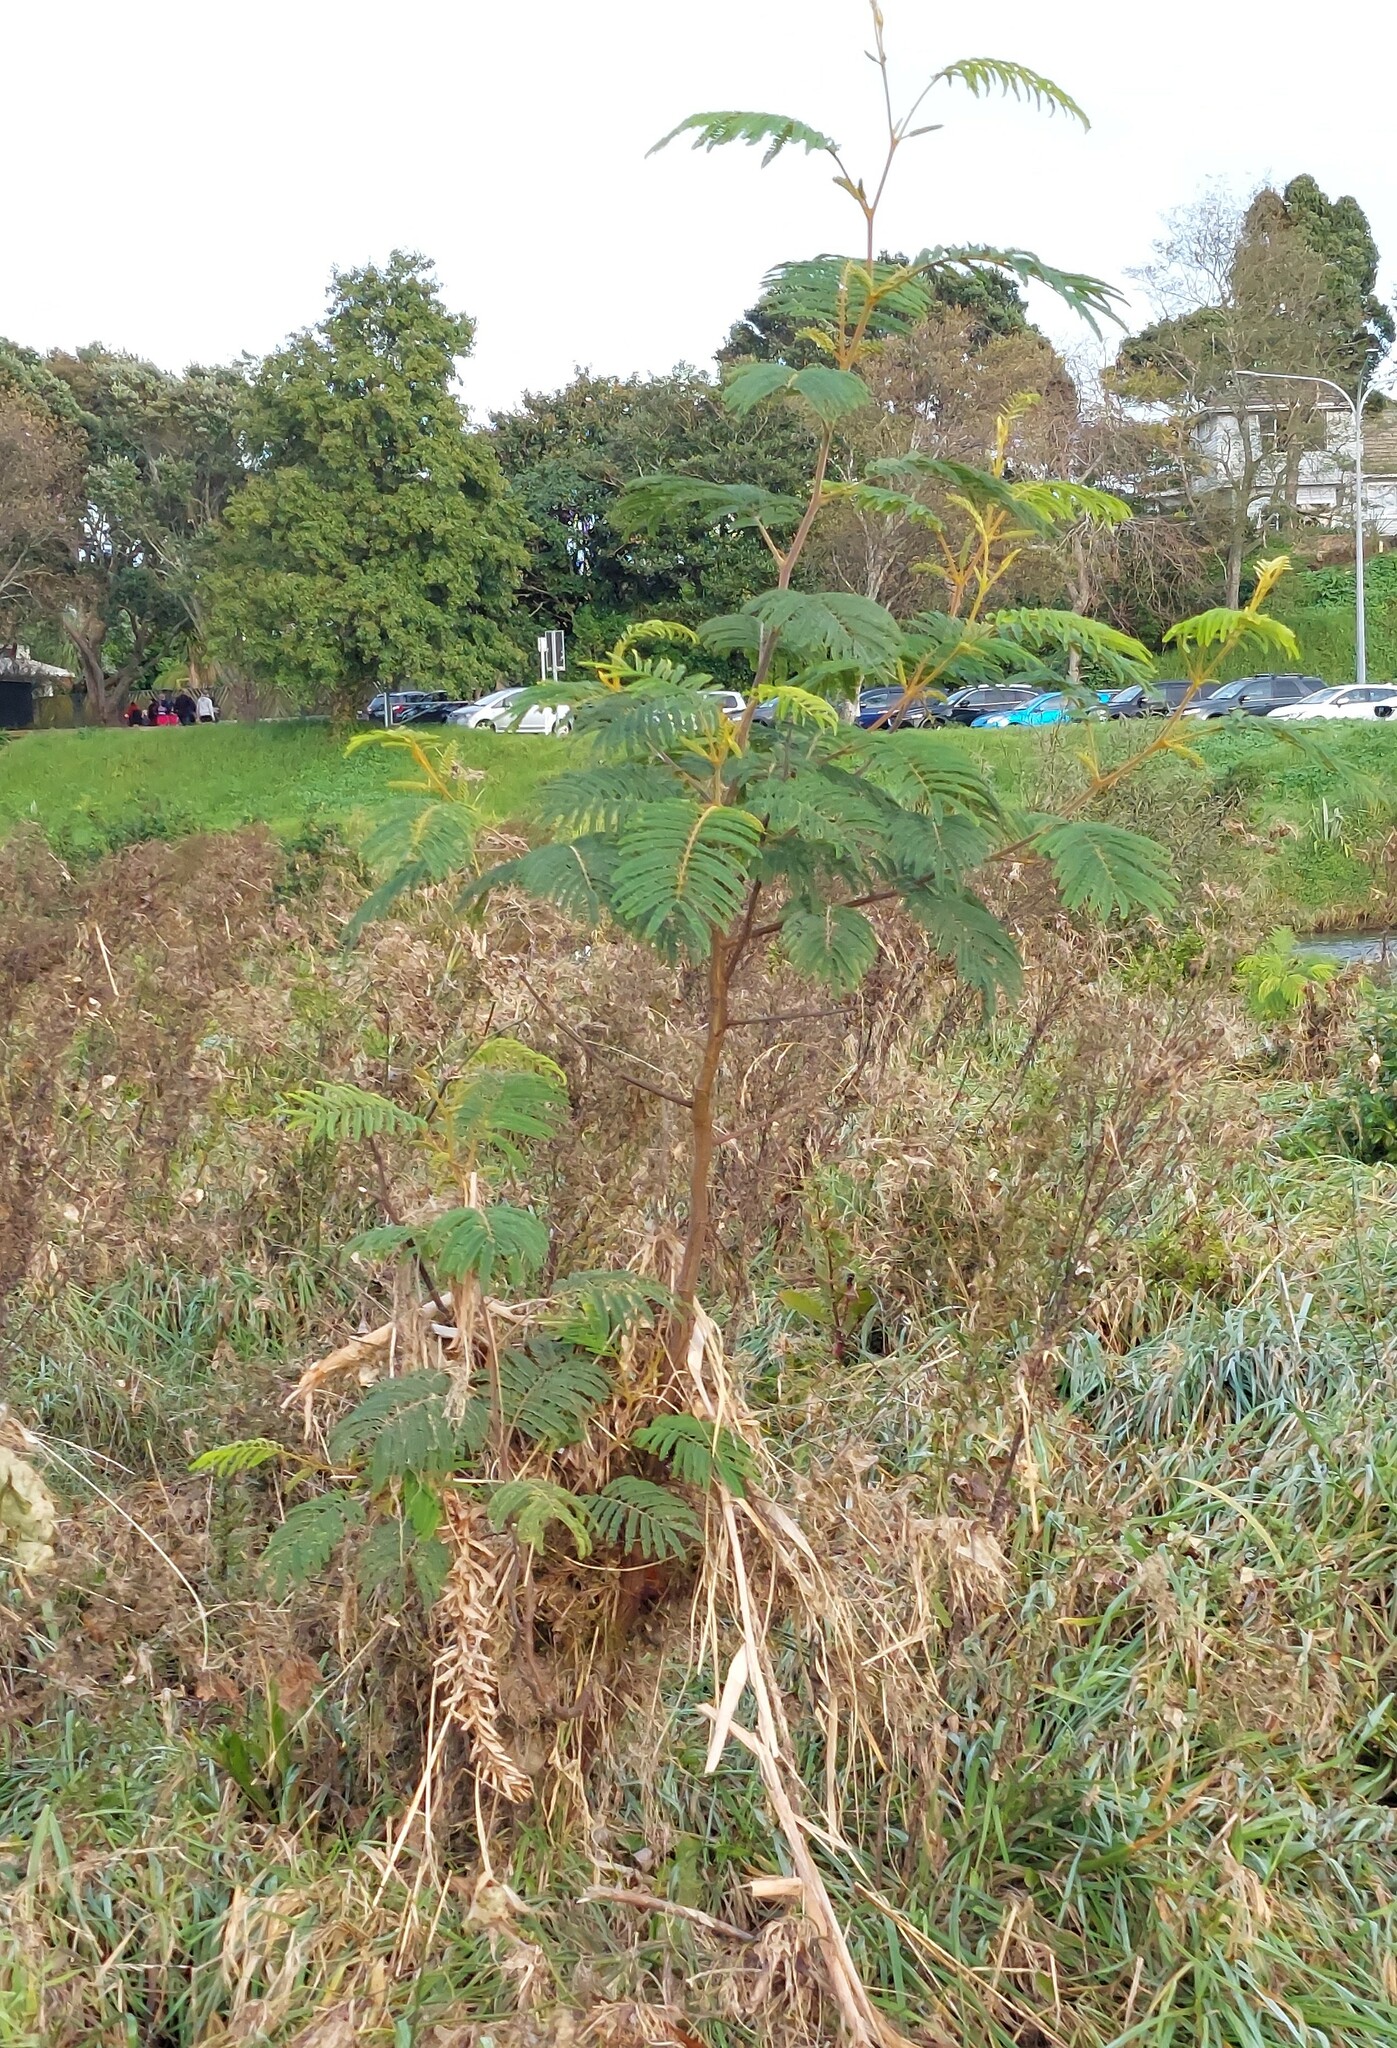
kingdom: Plantae
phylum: Tracheophyta
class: Magnoliopsida
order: Fabales
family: Fabaceae
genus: Paraserianthes
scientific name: Paraserianthes lophantha
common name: Plume albizia
